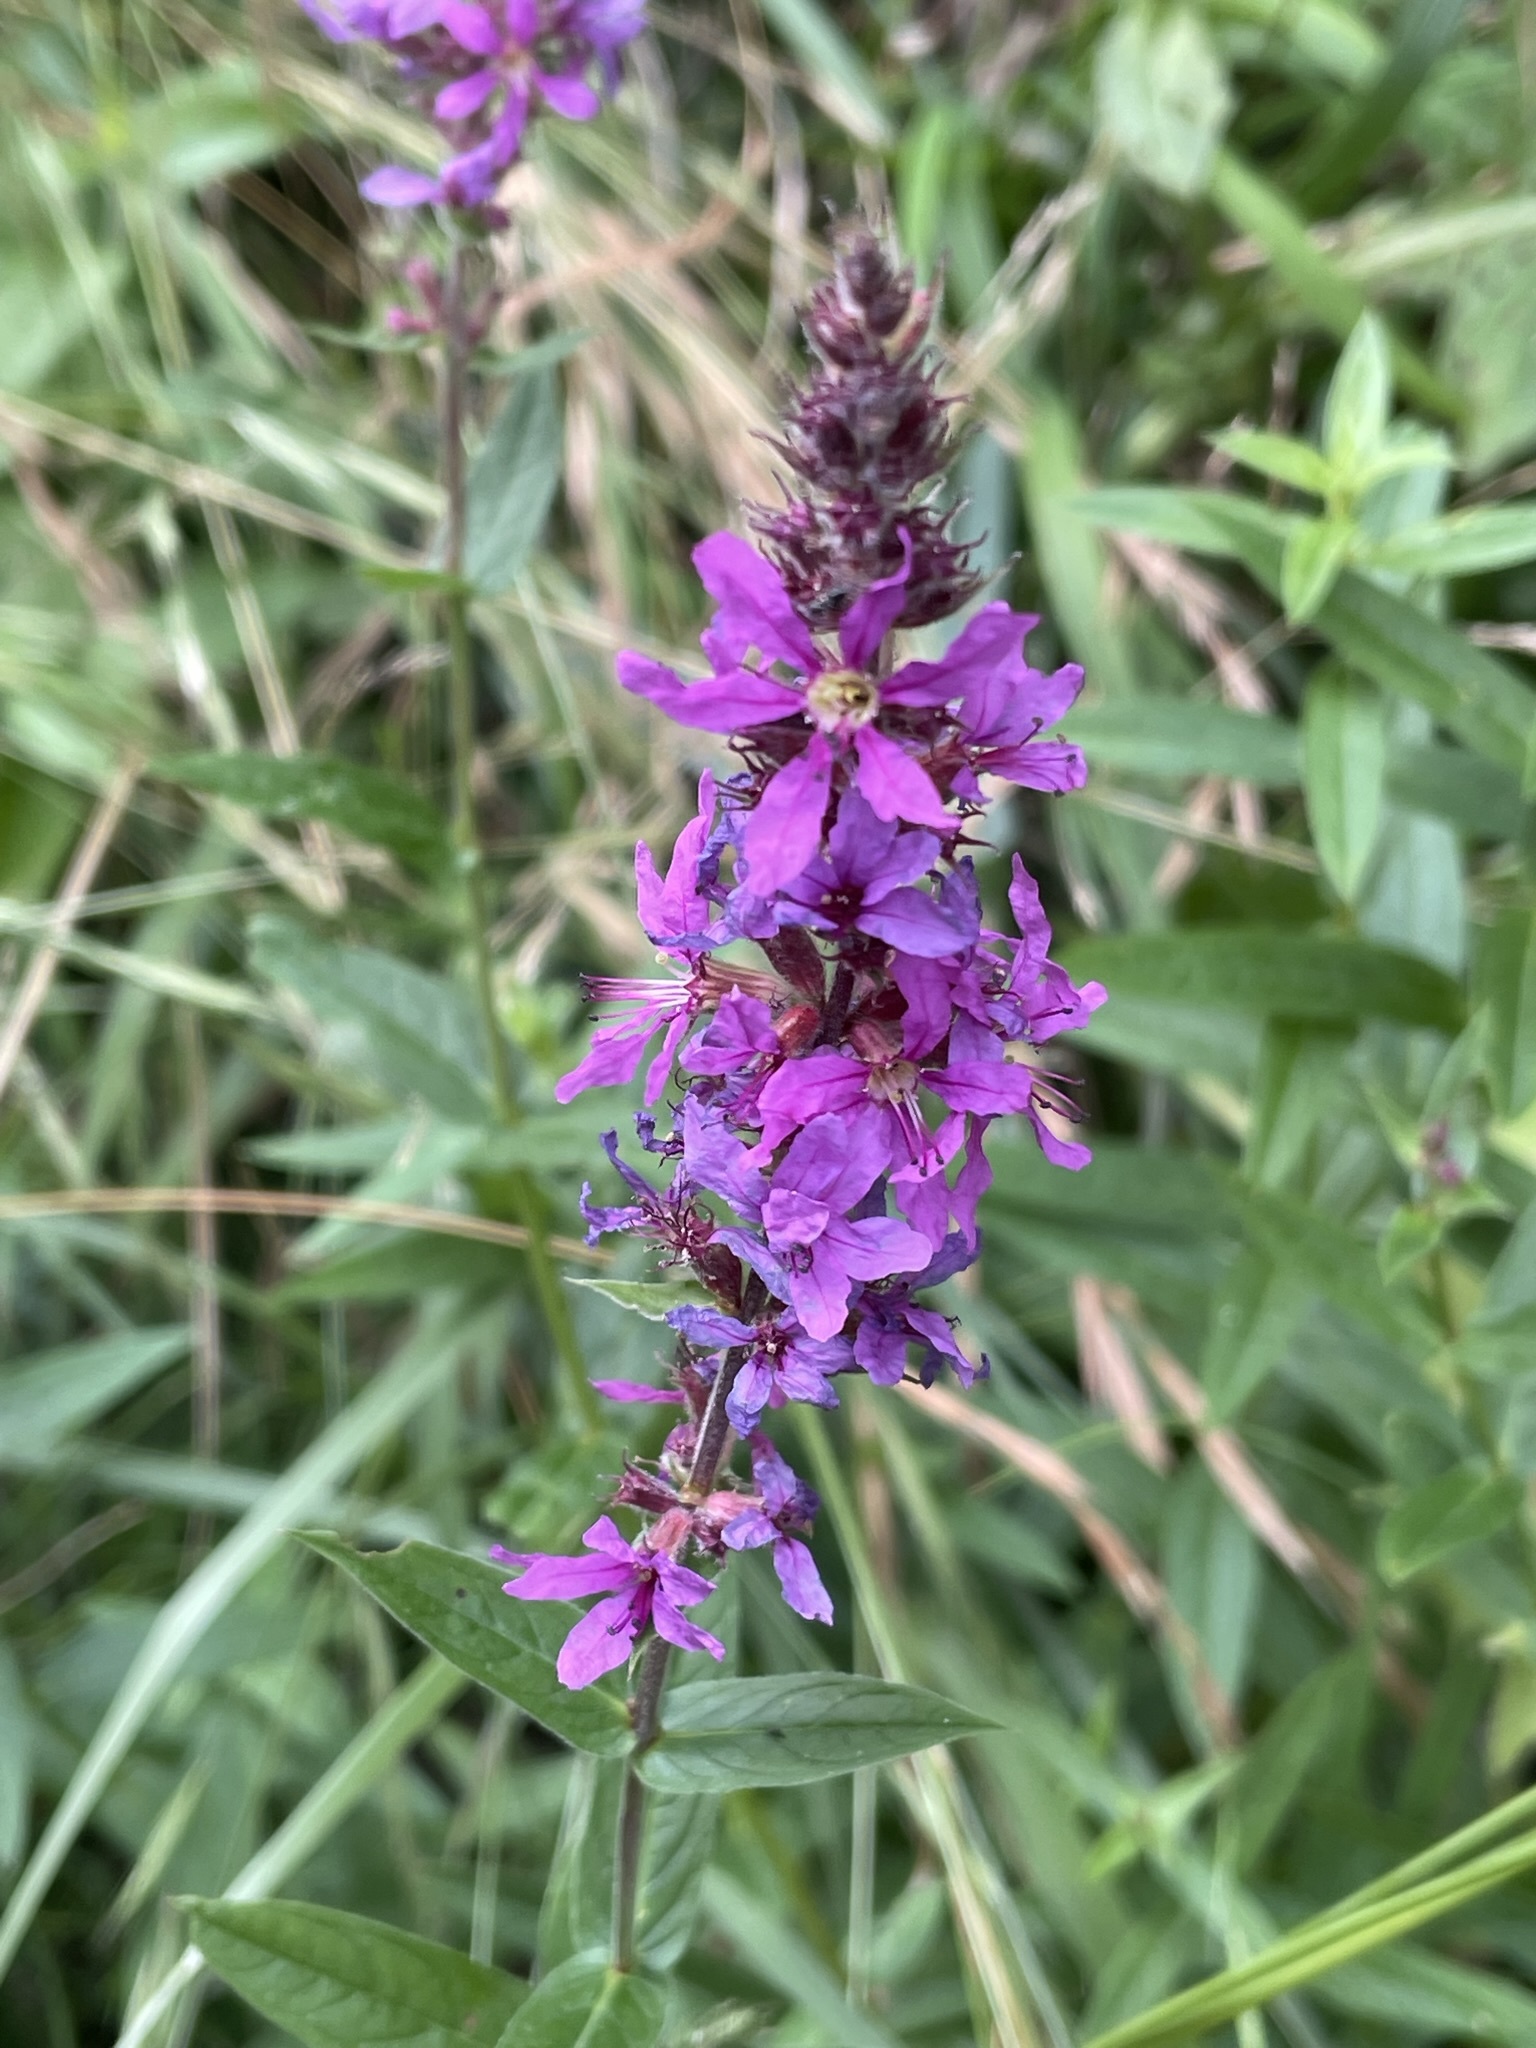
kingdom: Plantae
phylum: Tracheophyta
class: Magnoliopsida
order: Myrtales
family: Lythraceae
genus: Lythrum
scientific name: Lythrum salicaria
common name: Purple loosestrife
